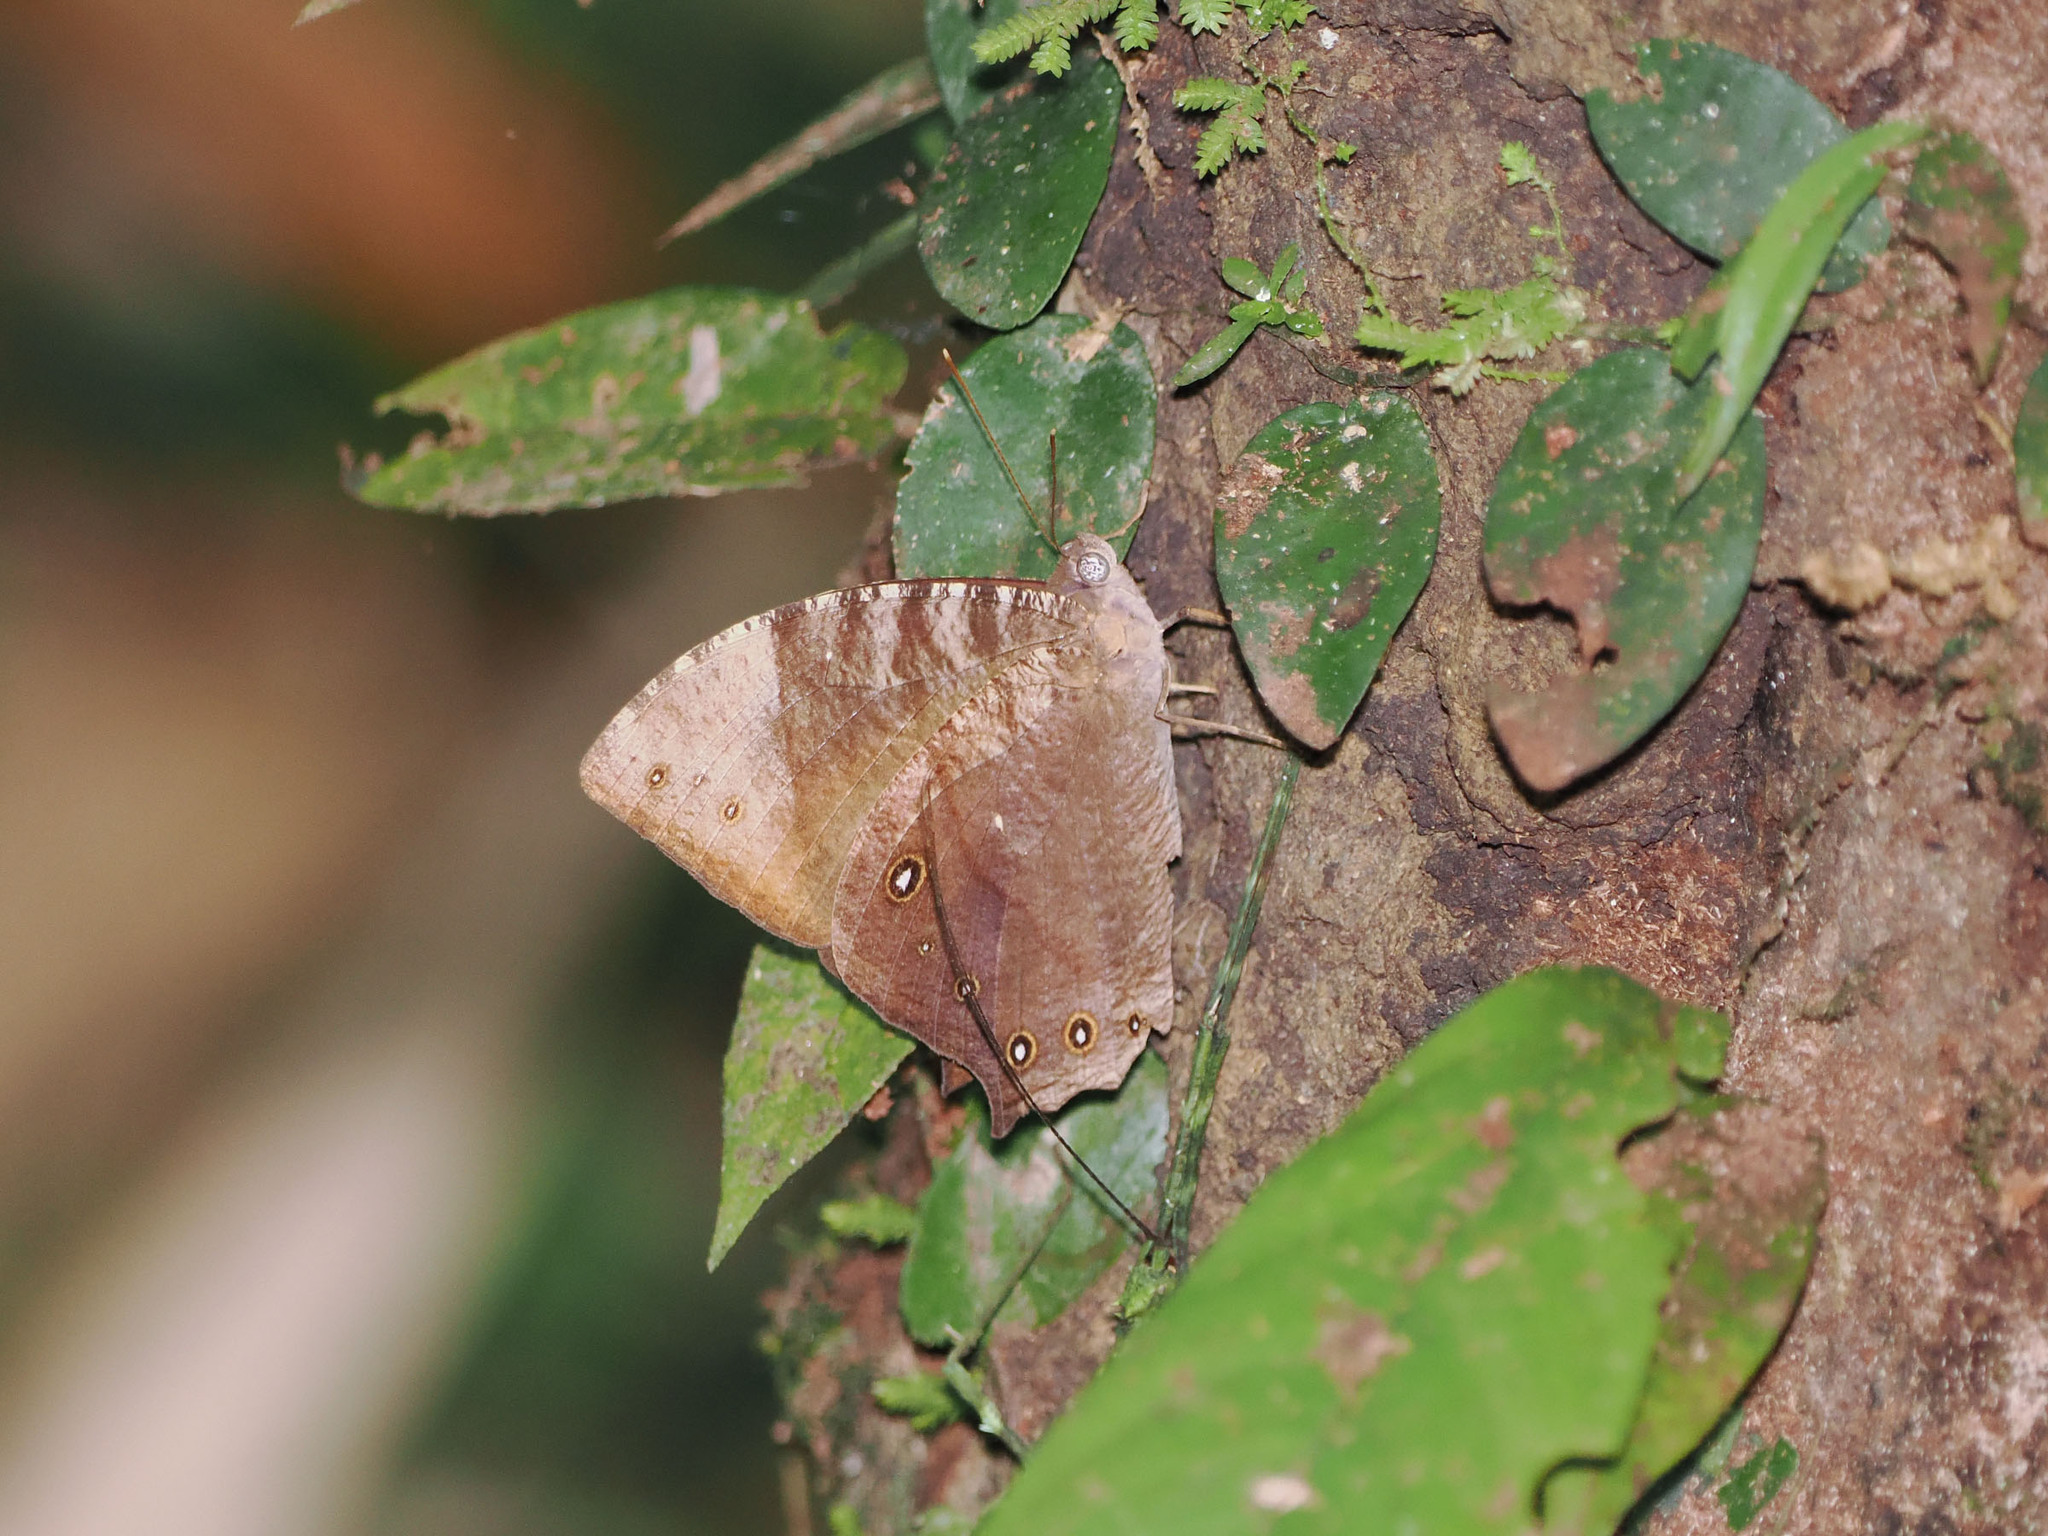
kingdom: Animalia
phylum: Arthropoda
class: Insecta
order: Lepidoptera
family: Nymphalidae
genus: Melanitis
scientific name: Melanitis constantia
